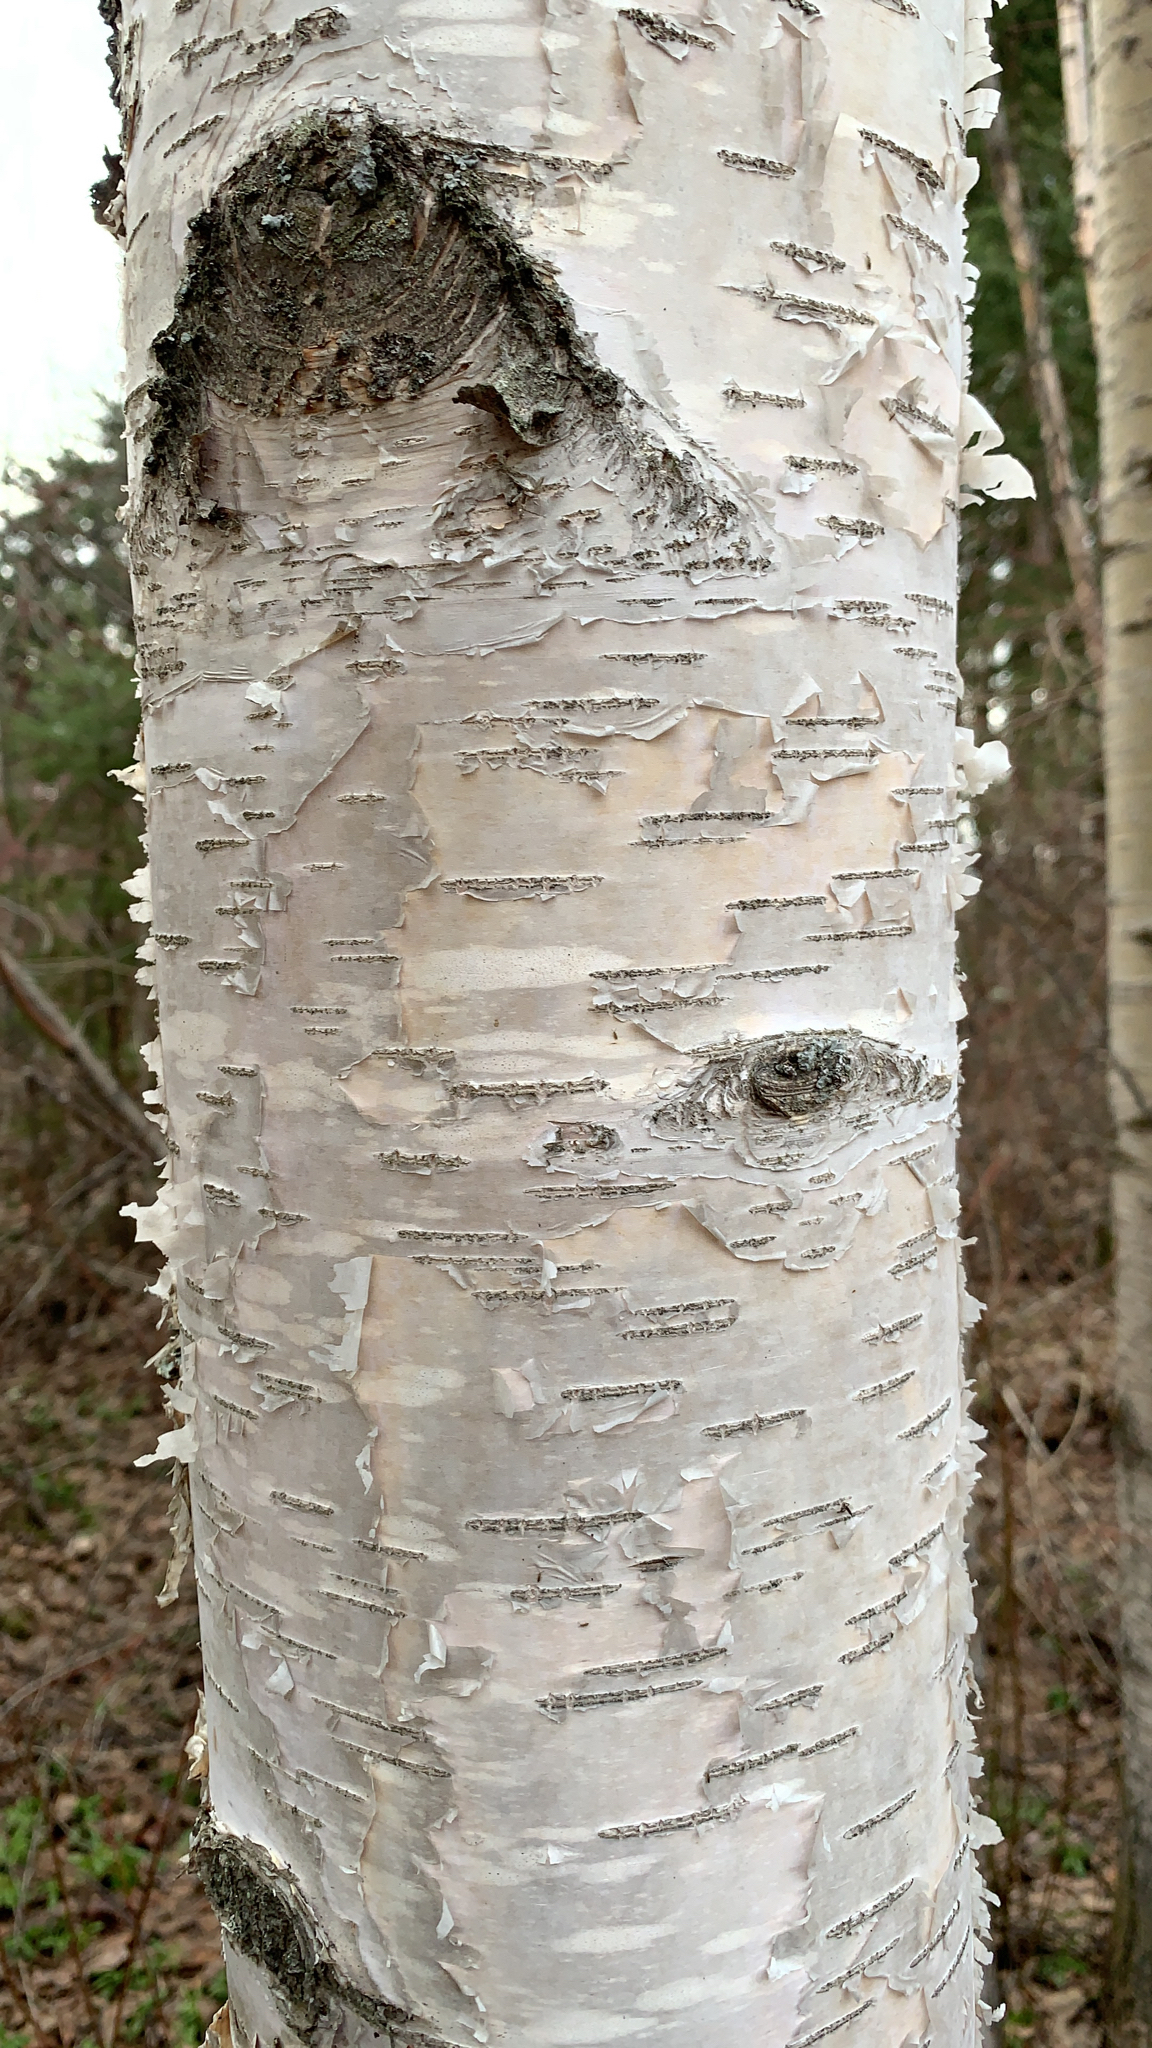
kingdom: Plantae
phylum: Tracheophyta
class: Magnoliopsida
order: Fagales
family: Betulaceae
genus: Betula
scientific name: Betula papyrifera
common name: Paper birch
